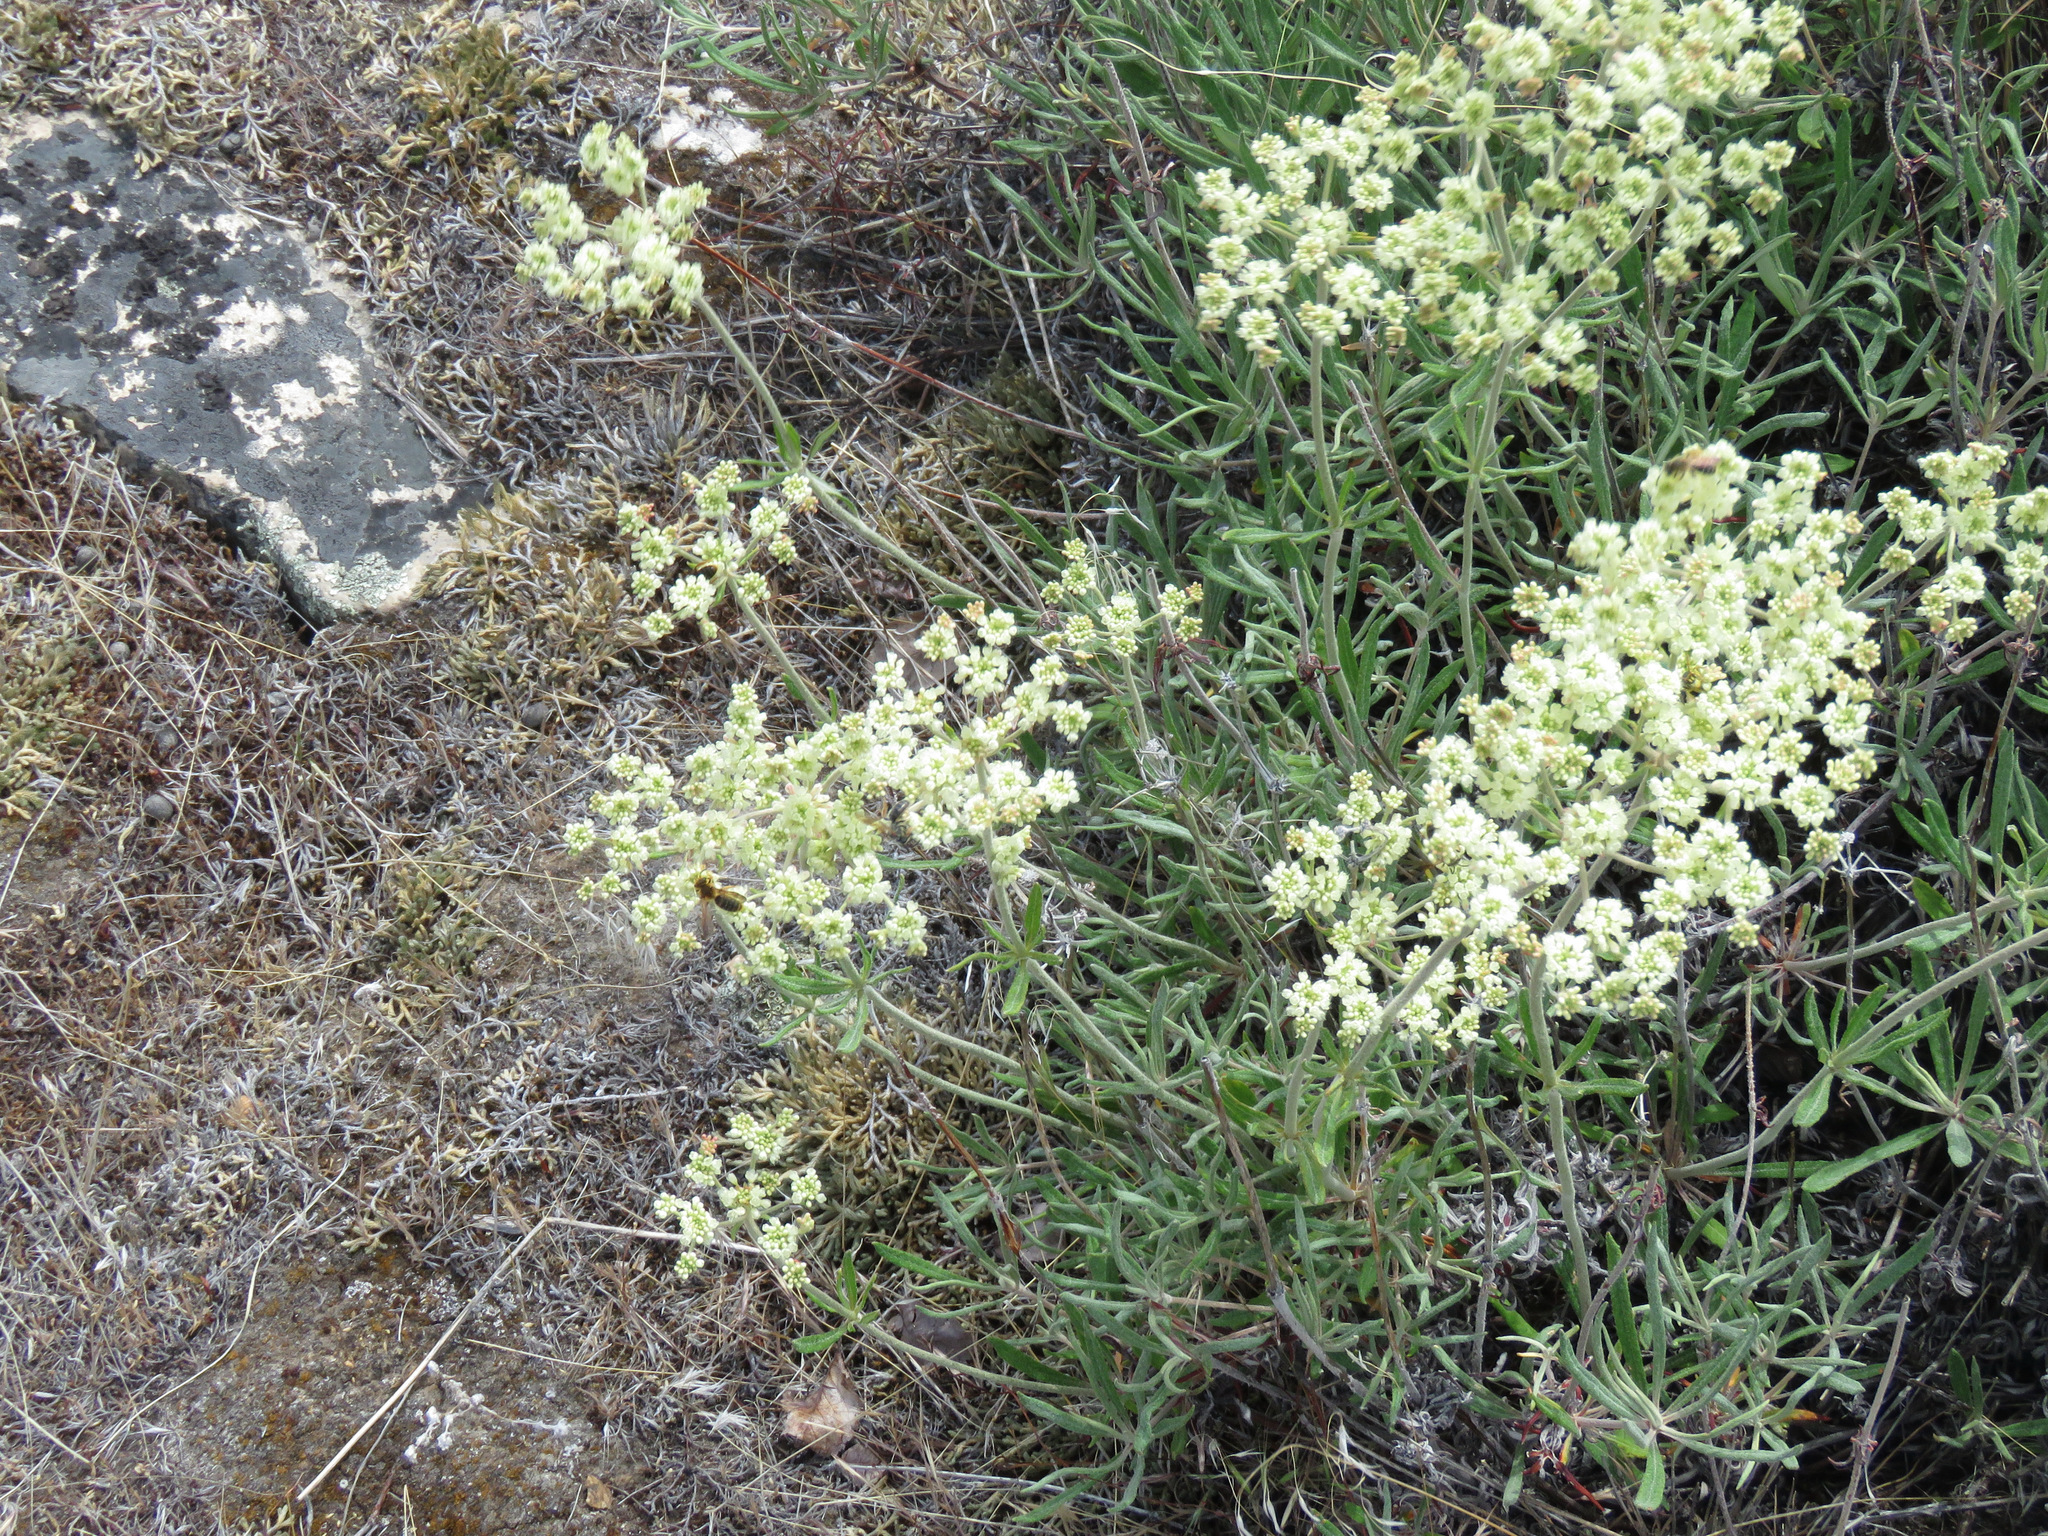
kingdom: Plantae
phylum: Tracheophyta
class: Magnoliopsida
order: Caryophyllales
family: Polygonaceae
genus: Eriogonum
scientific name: Eriogonum heracleoides
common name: Wyeth's buckwheat
